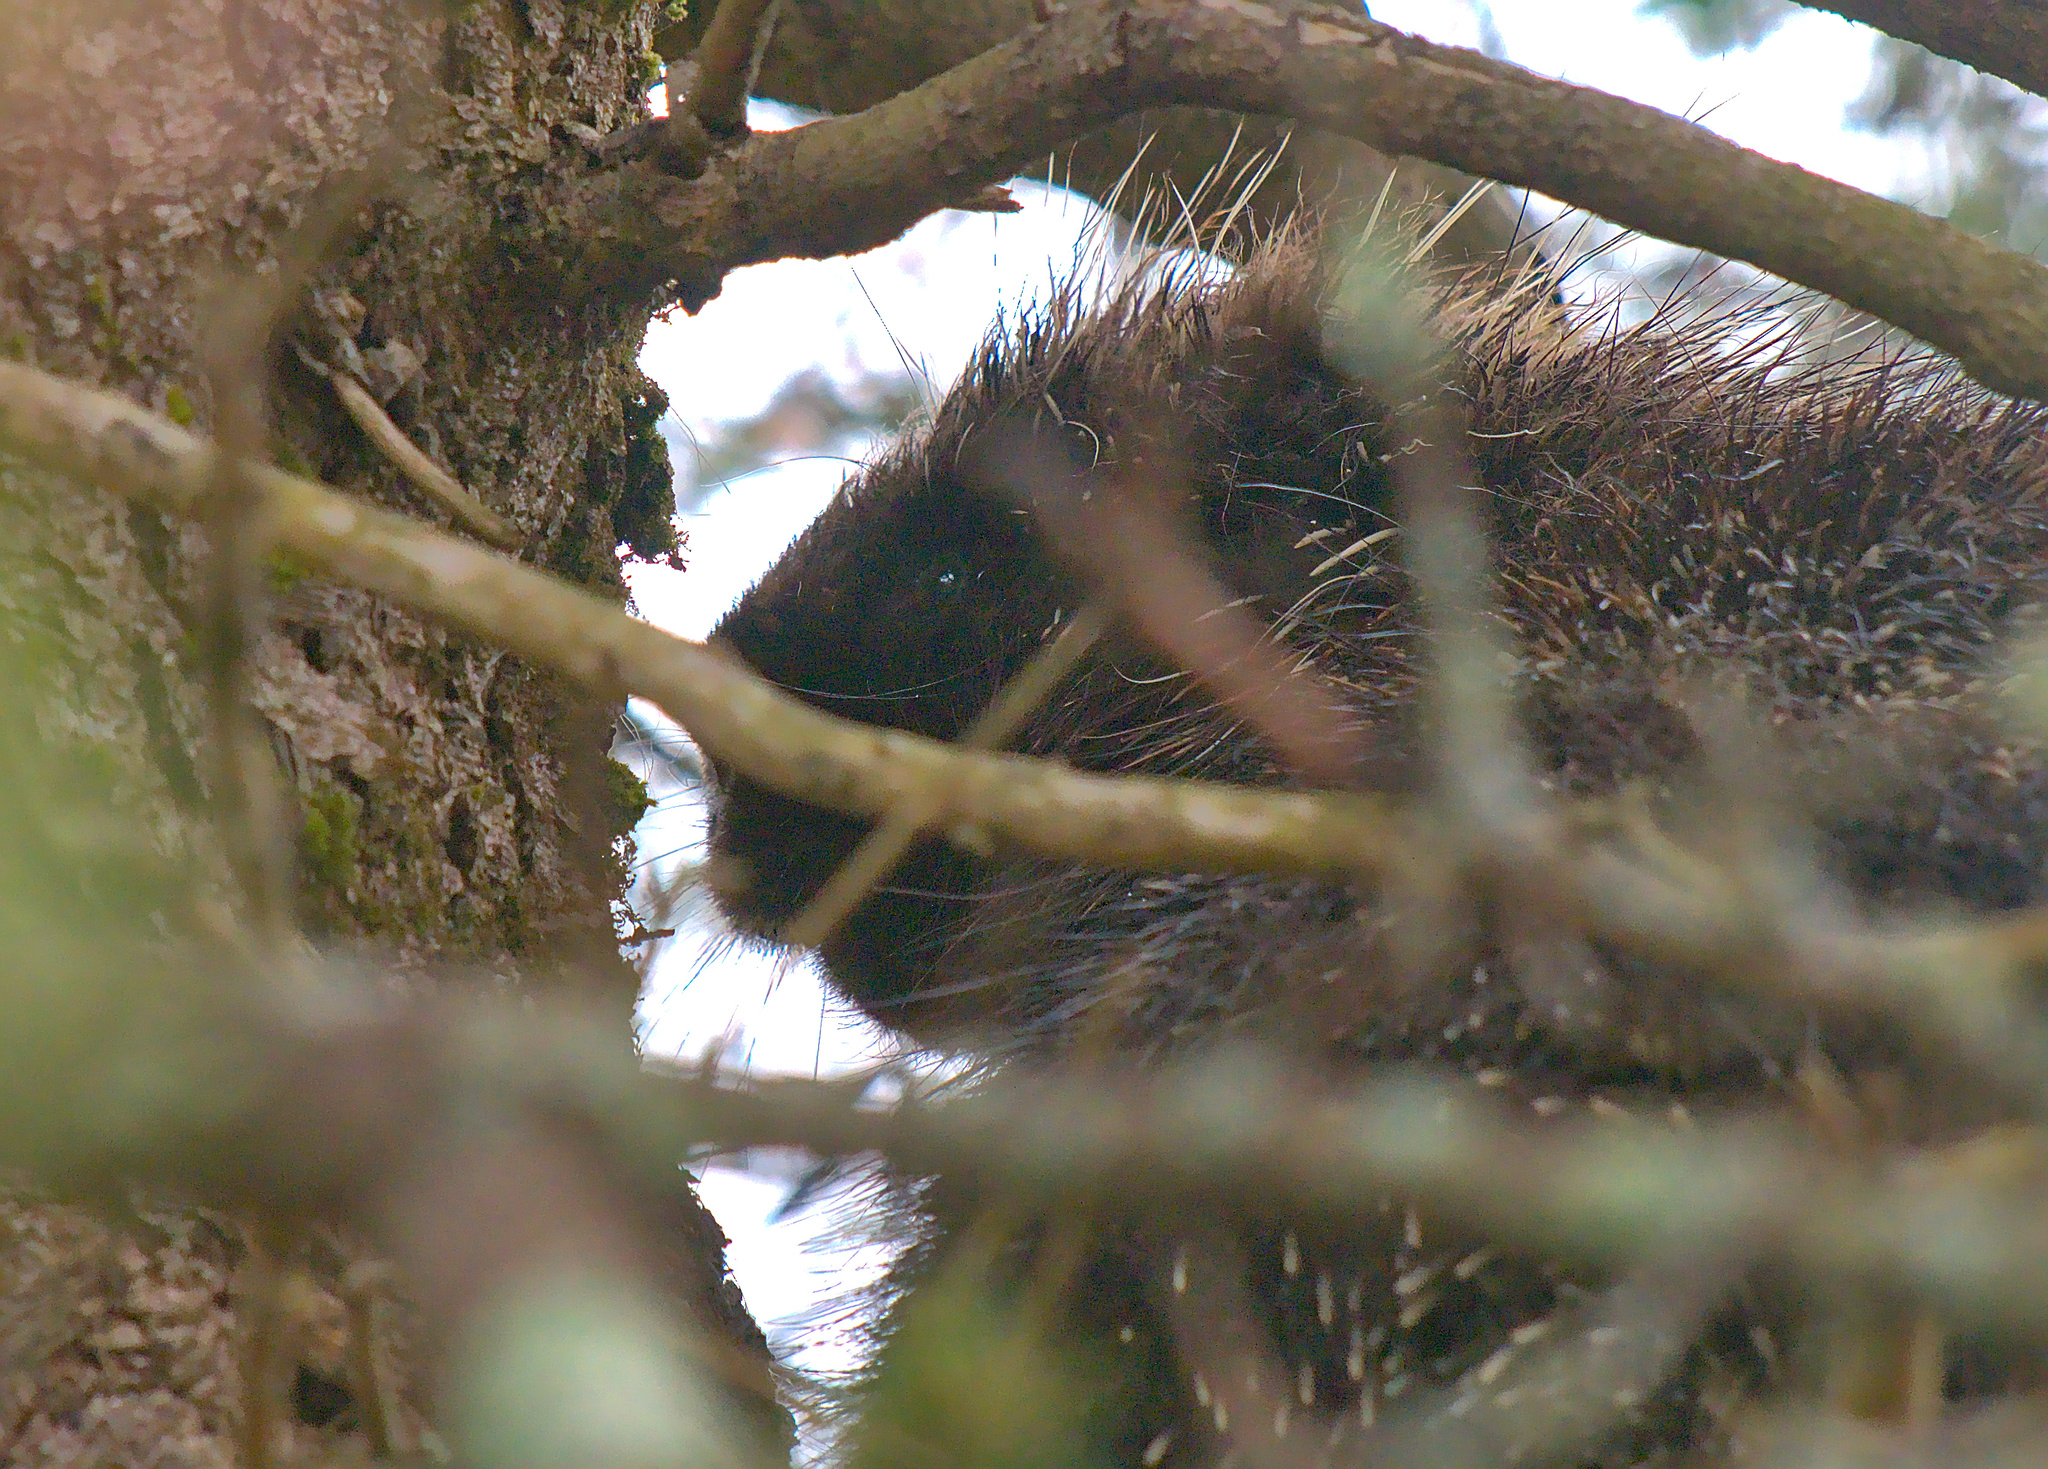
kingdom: Animalia
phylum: Chordata
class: Mammalia
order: Rodentia
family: Erethizontidae
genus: Erethizon
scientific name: Erethizon dorsatus
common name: North american porcupine
